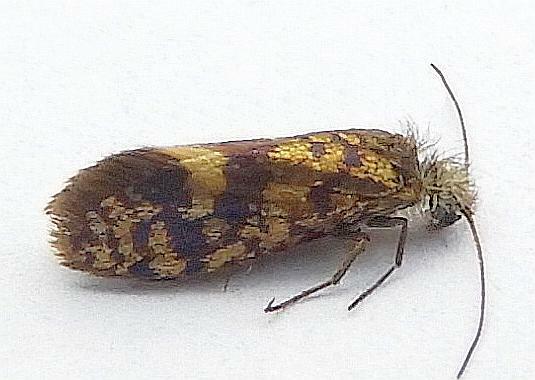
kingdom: Animalia
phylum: Arthropoda
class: Insecta
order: Lepidoptera
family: Eriocraniidae
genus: Eriocrania
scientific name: Eriocrania semipurpurella
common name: Early purple
